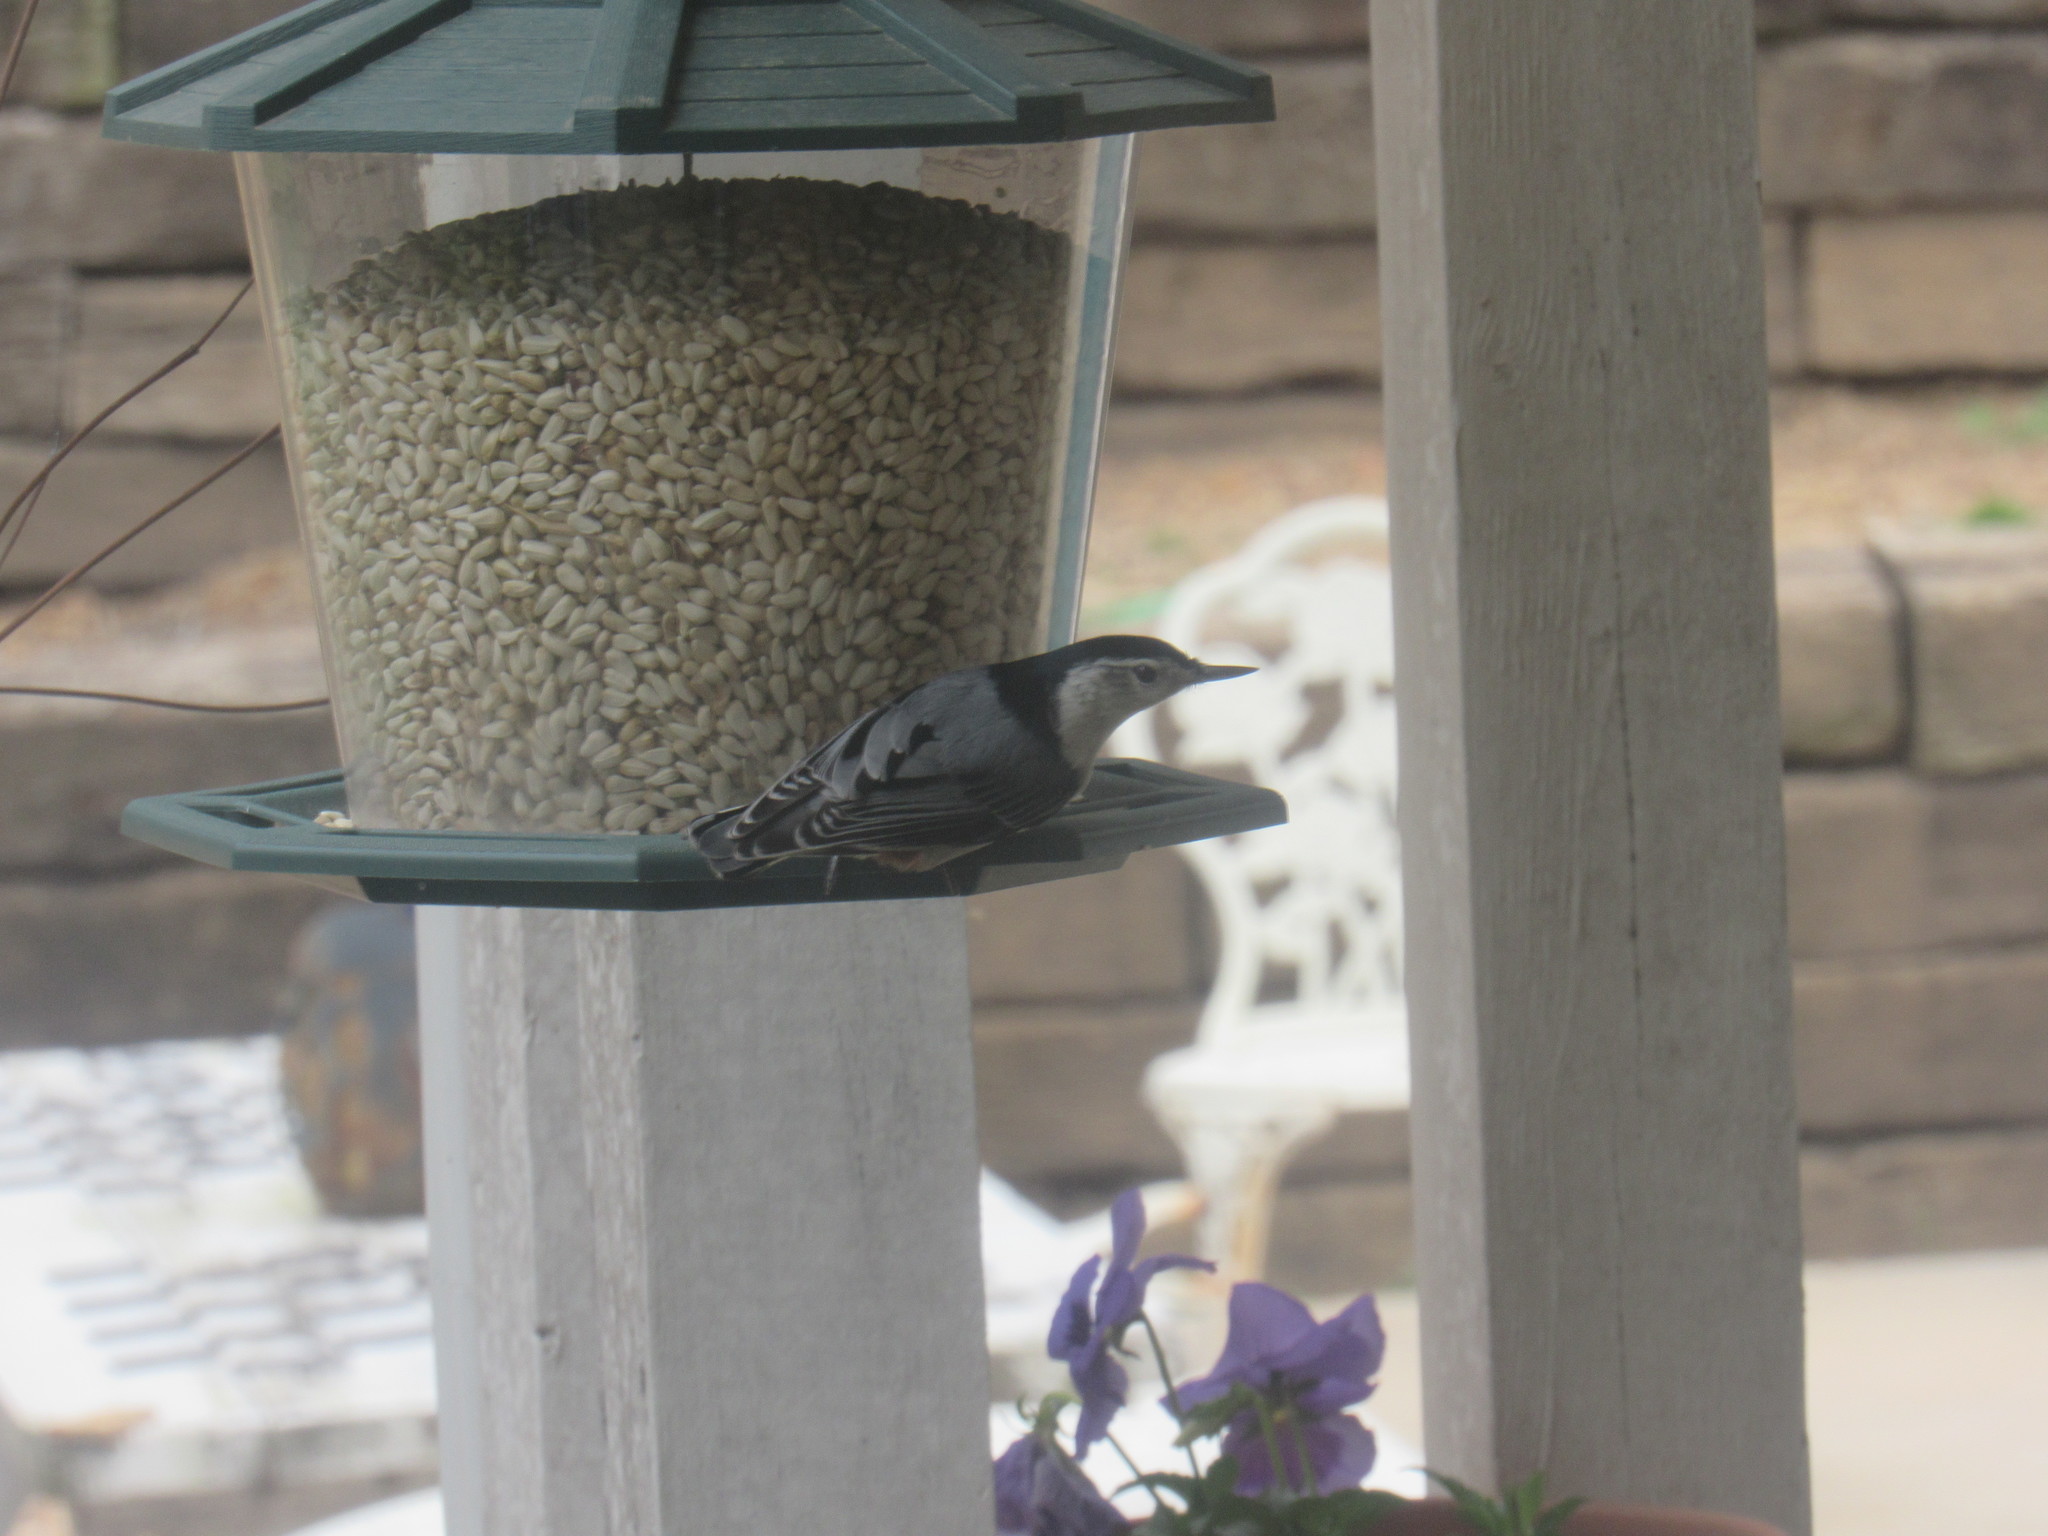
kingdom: Animalia
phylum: Chordata
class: Aves
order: Passeriformes
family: Sittidae
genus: Sitta
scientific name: Sitta carolinensis
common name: White-breasted nuthatch
